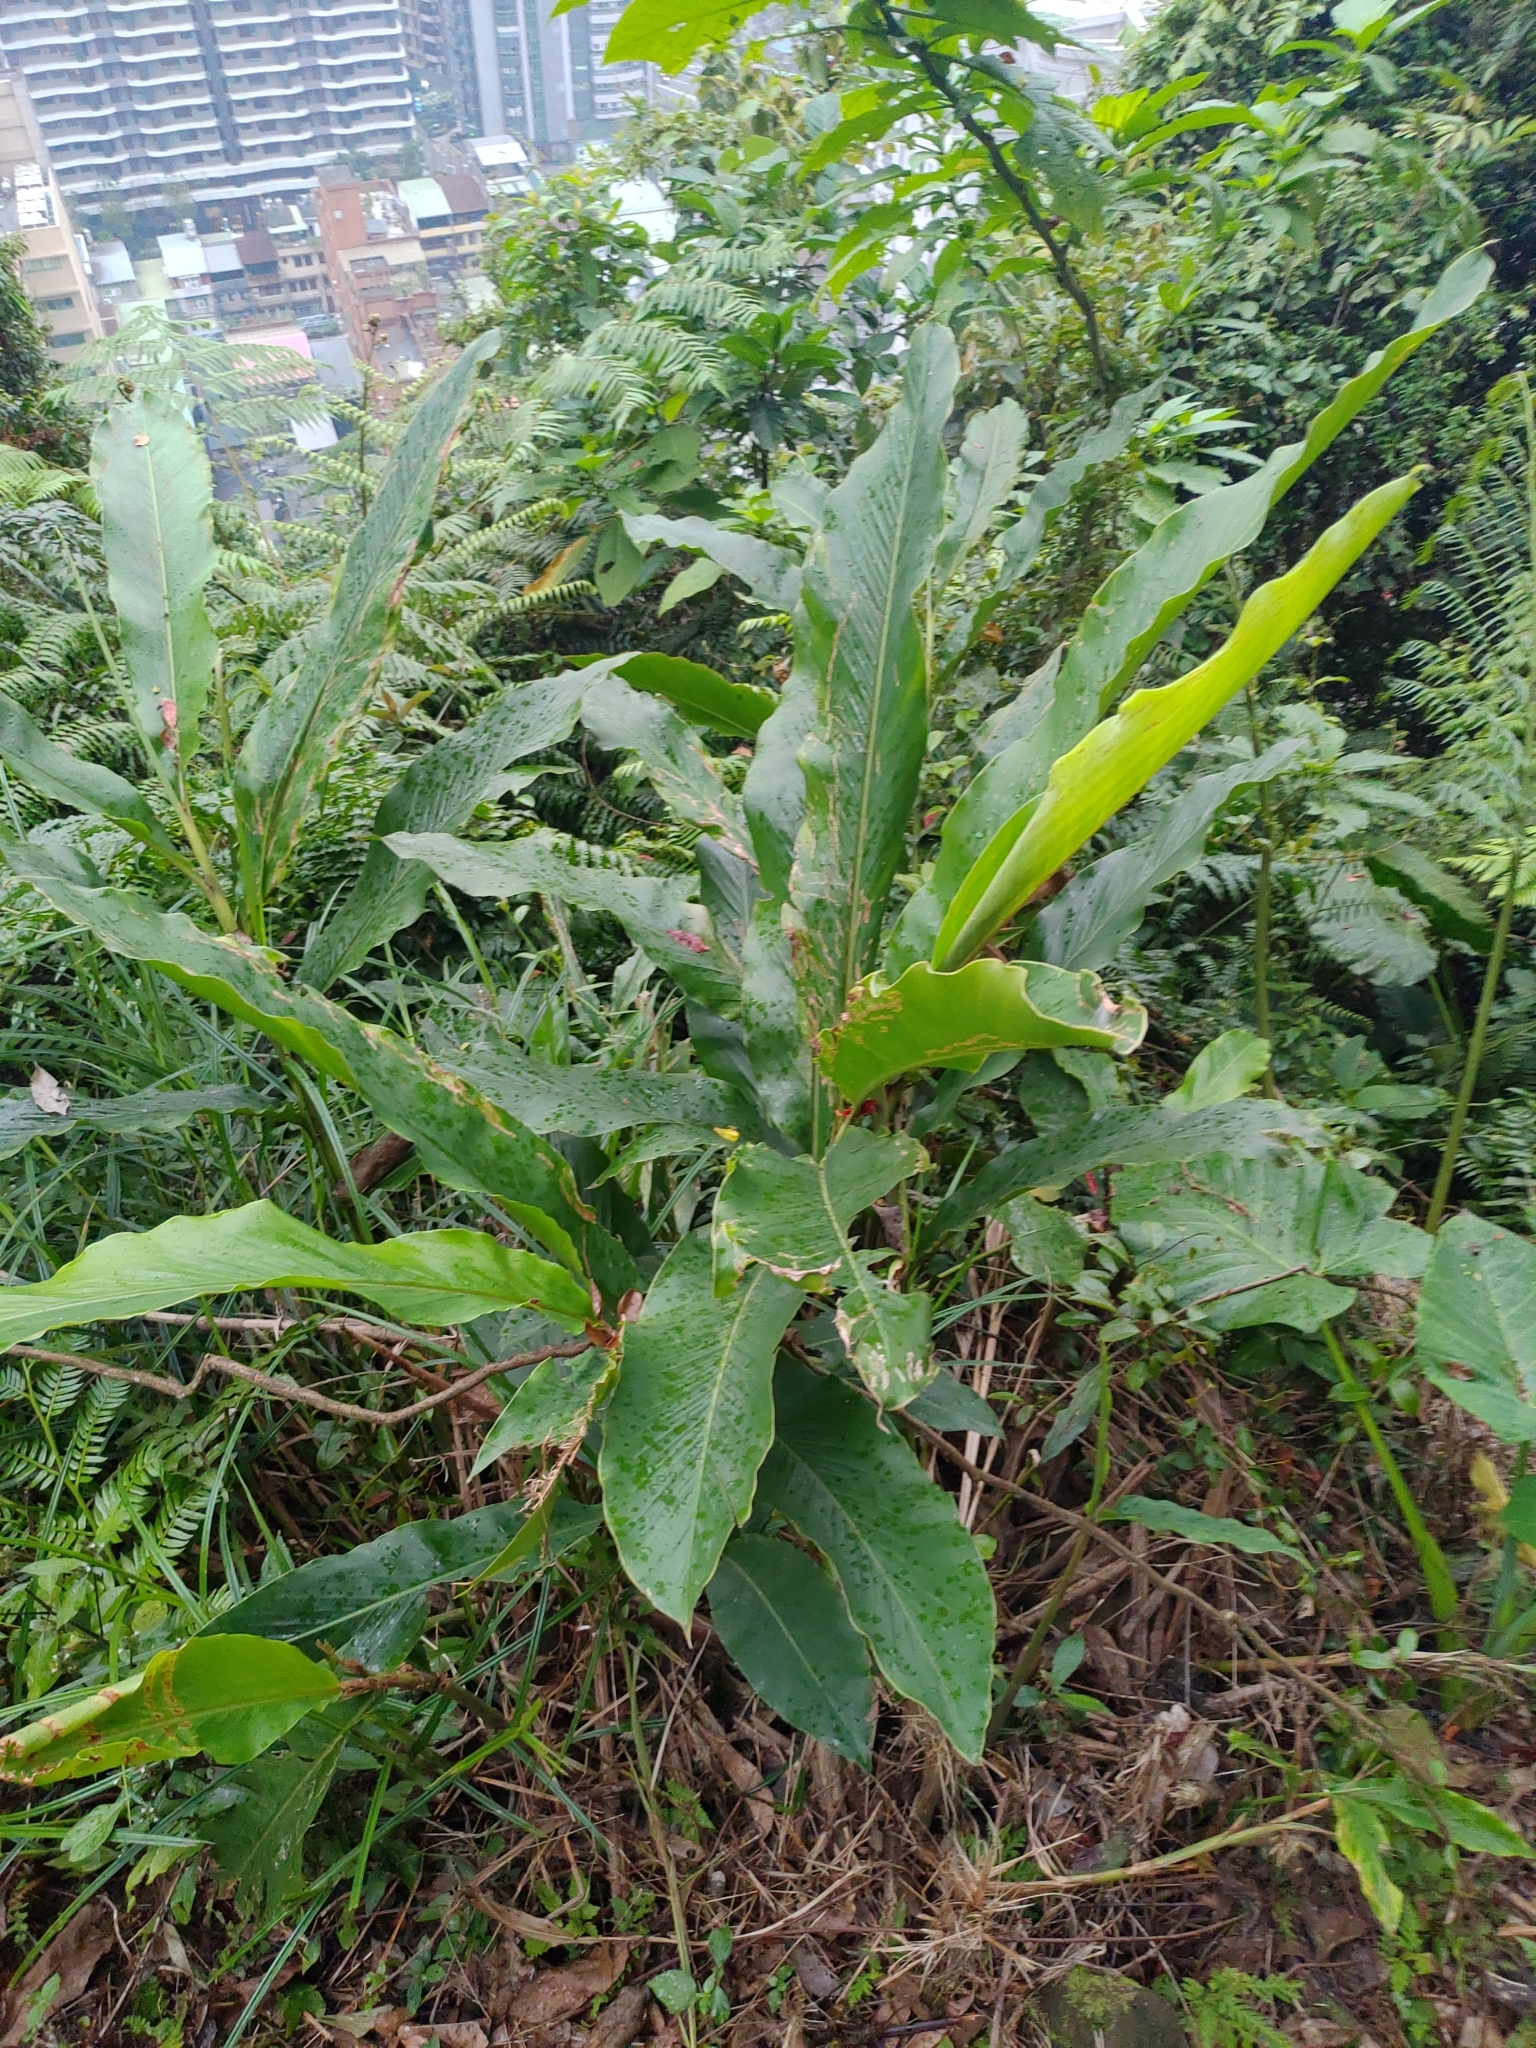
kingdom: Plantae
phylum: Tracheophyta
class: Liliopsida
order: Zingiberales
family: Zingiberaceae
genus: Alpinia
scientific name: Alpinia uraiensis
